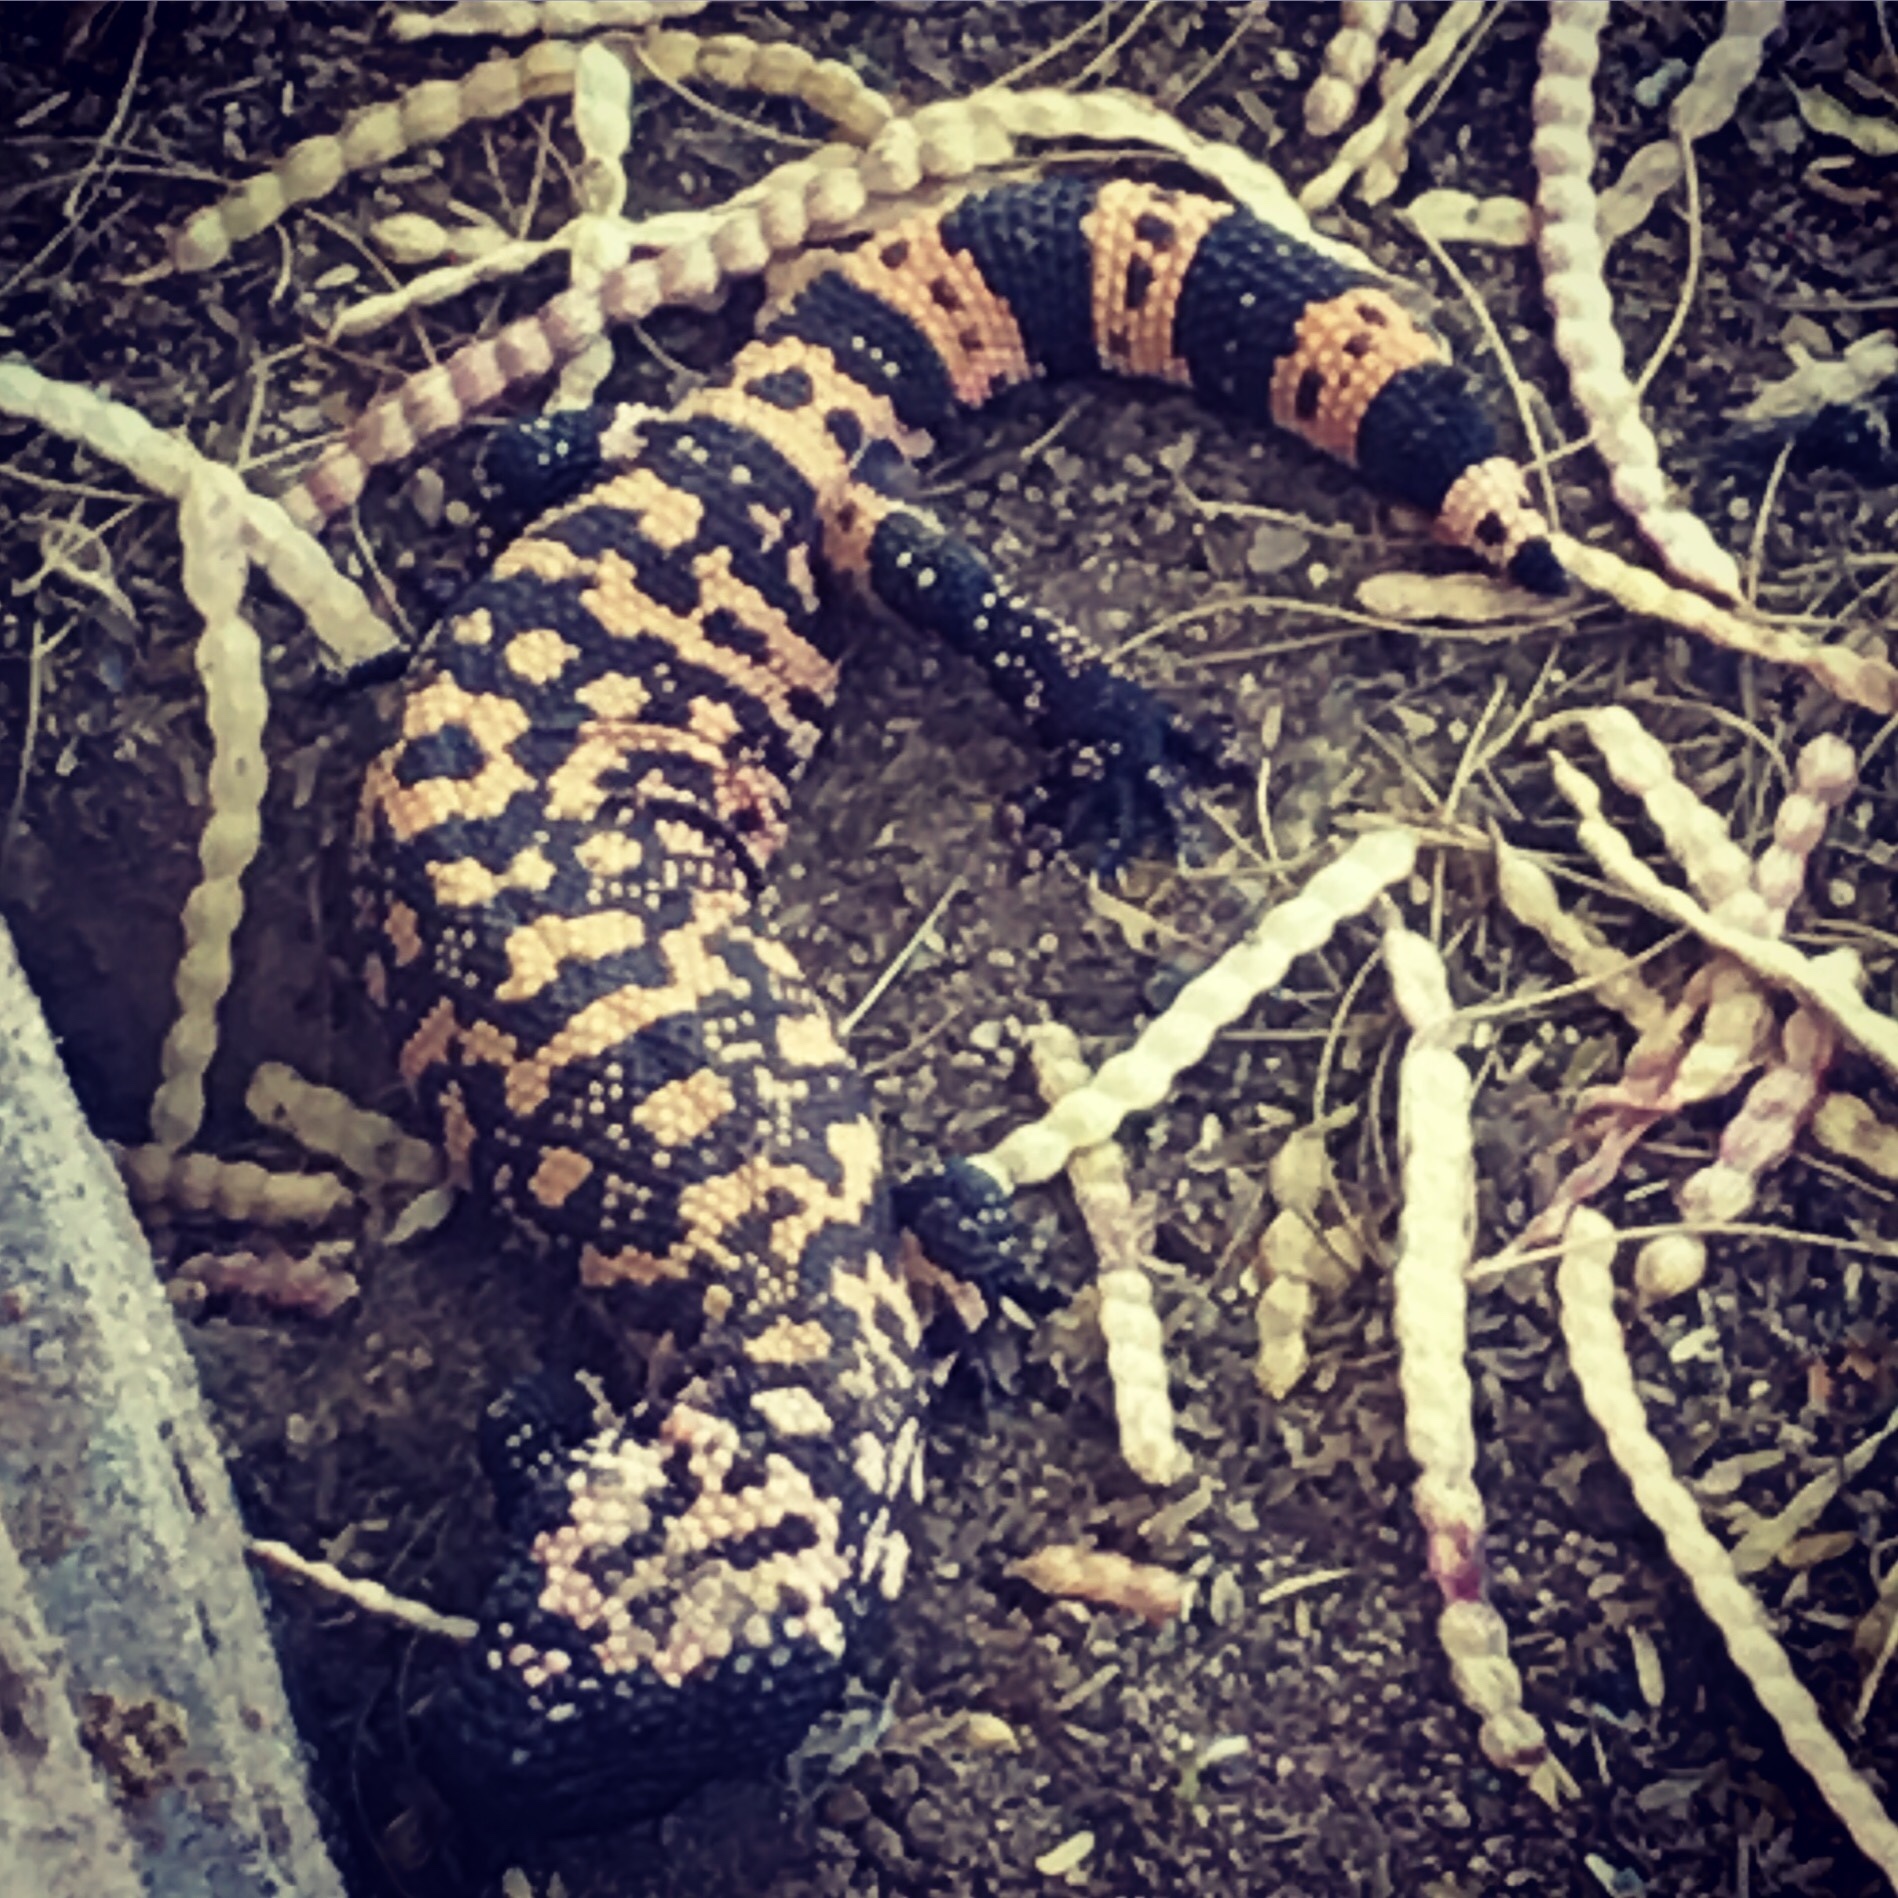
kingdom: Animalia
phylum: Chordata
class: Squamata
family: Helodermatidae
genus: Heloderma
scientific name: Heloderma suspectum
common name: Gila monster
